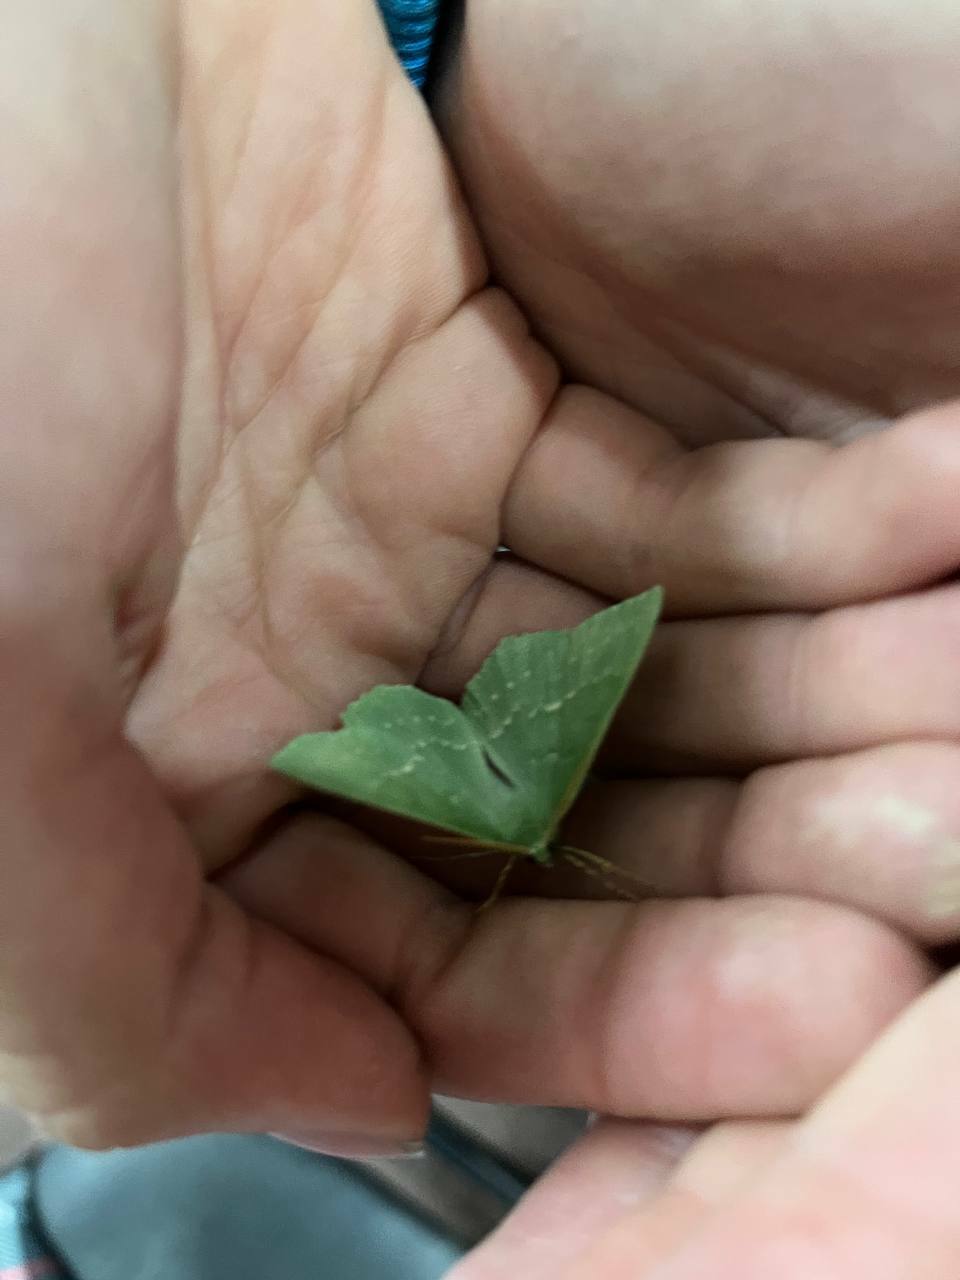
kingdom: Animalia
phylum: Arthropoda
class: Insecta
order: Lepidoptera
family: Geometridae
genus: Geometra
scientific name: Geometra papilionaria
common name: Large emerald
